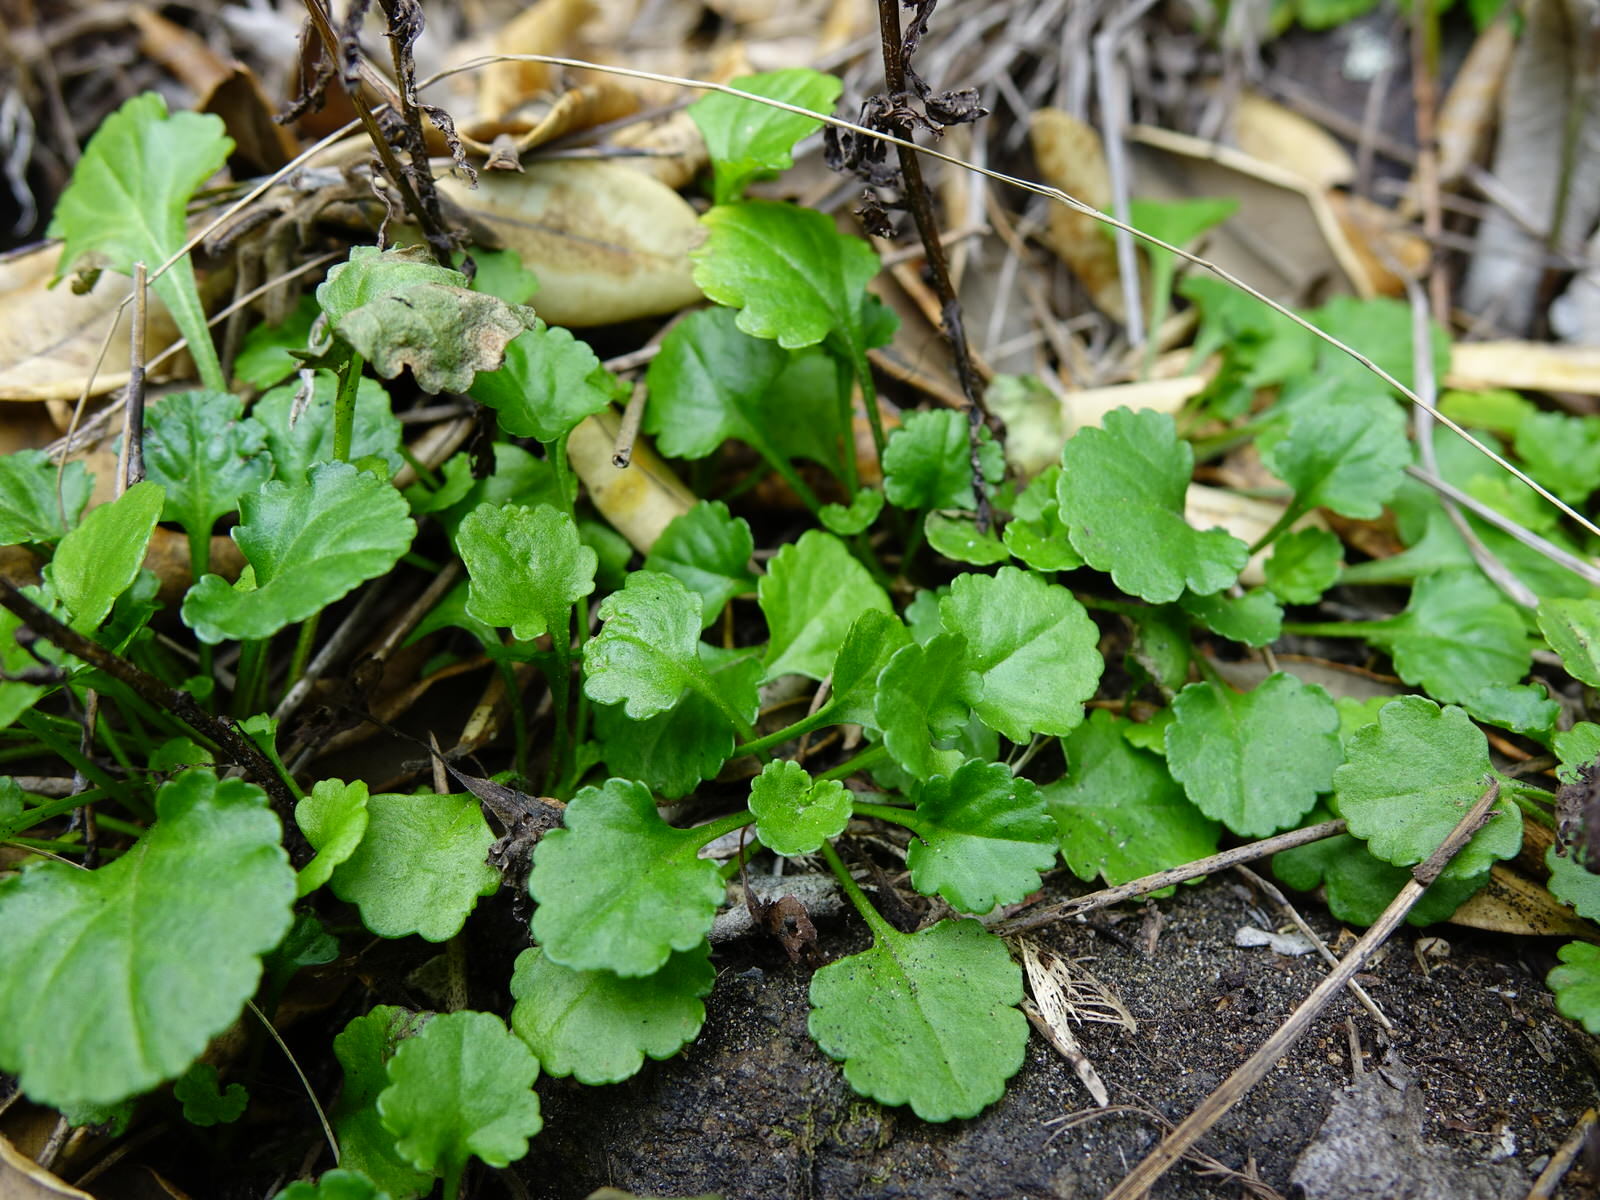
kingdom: Plantae
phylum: Tracheophyta
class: Magnoliopsida
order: Asterales
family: Asteraceae
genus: Leucanthemum
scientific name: Leucanthemum vulgare
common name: Oxeye daisy
